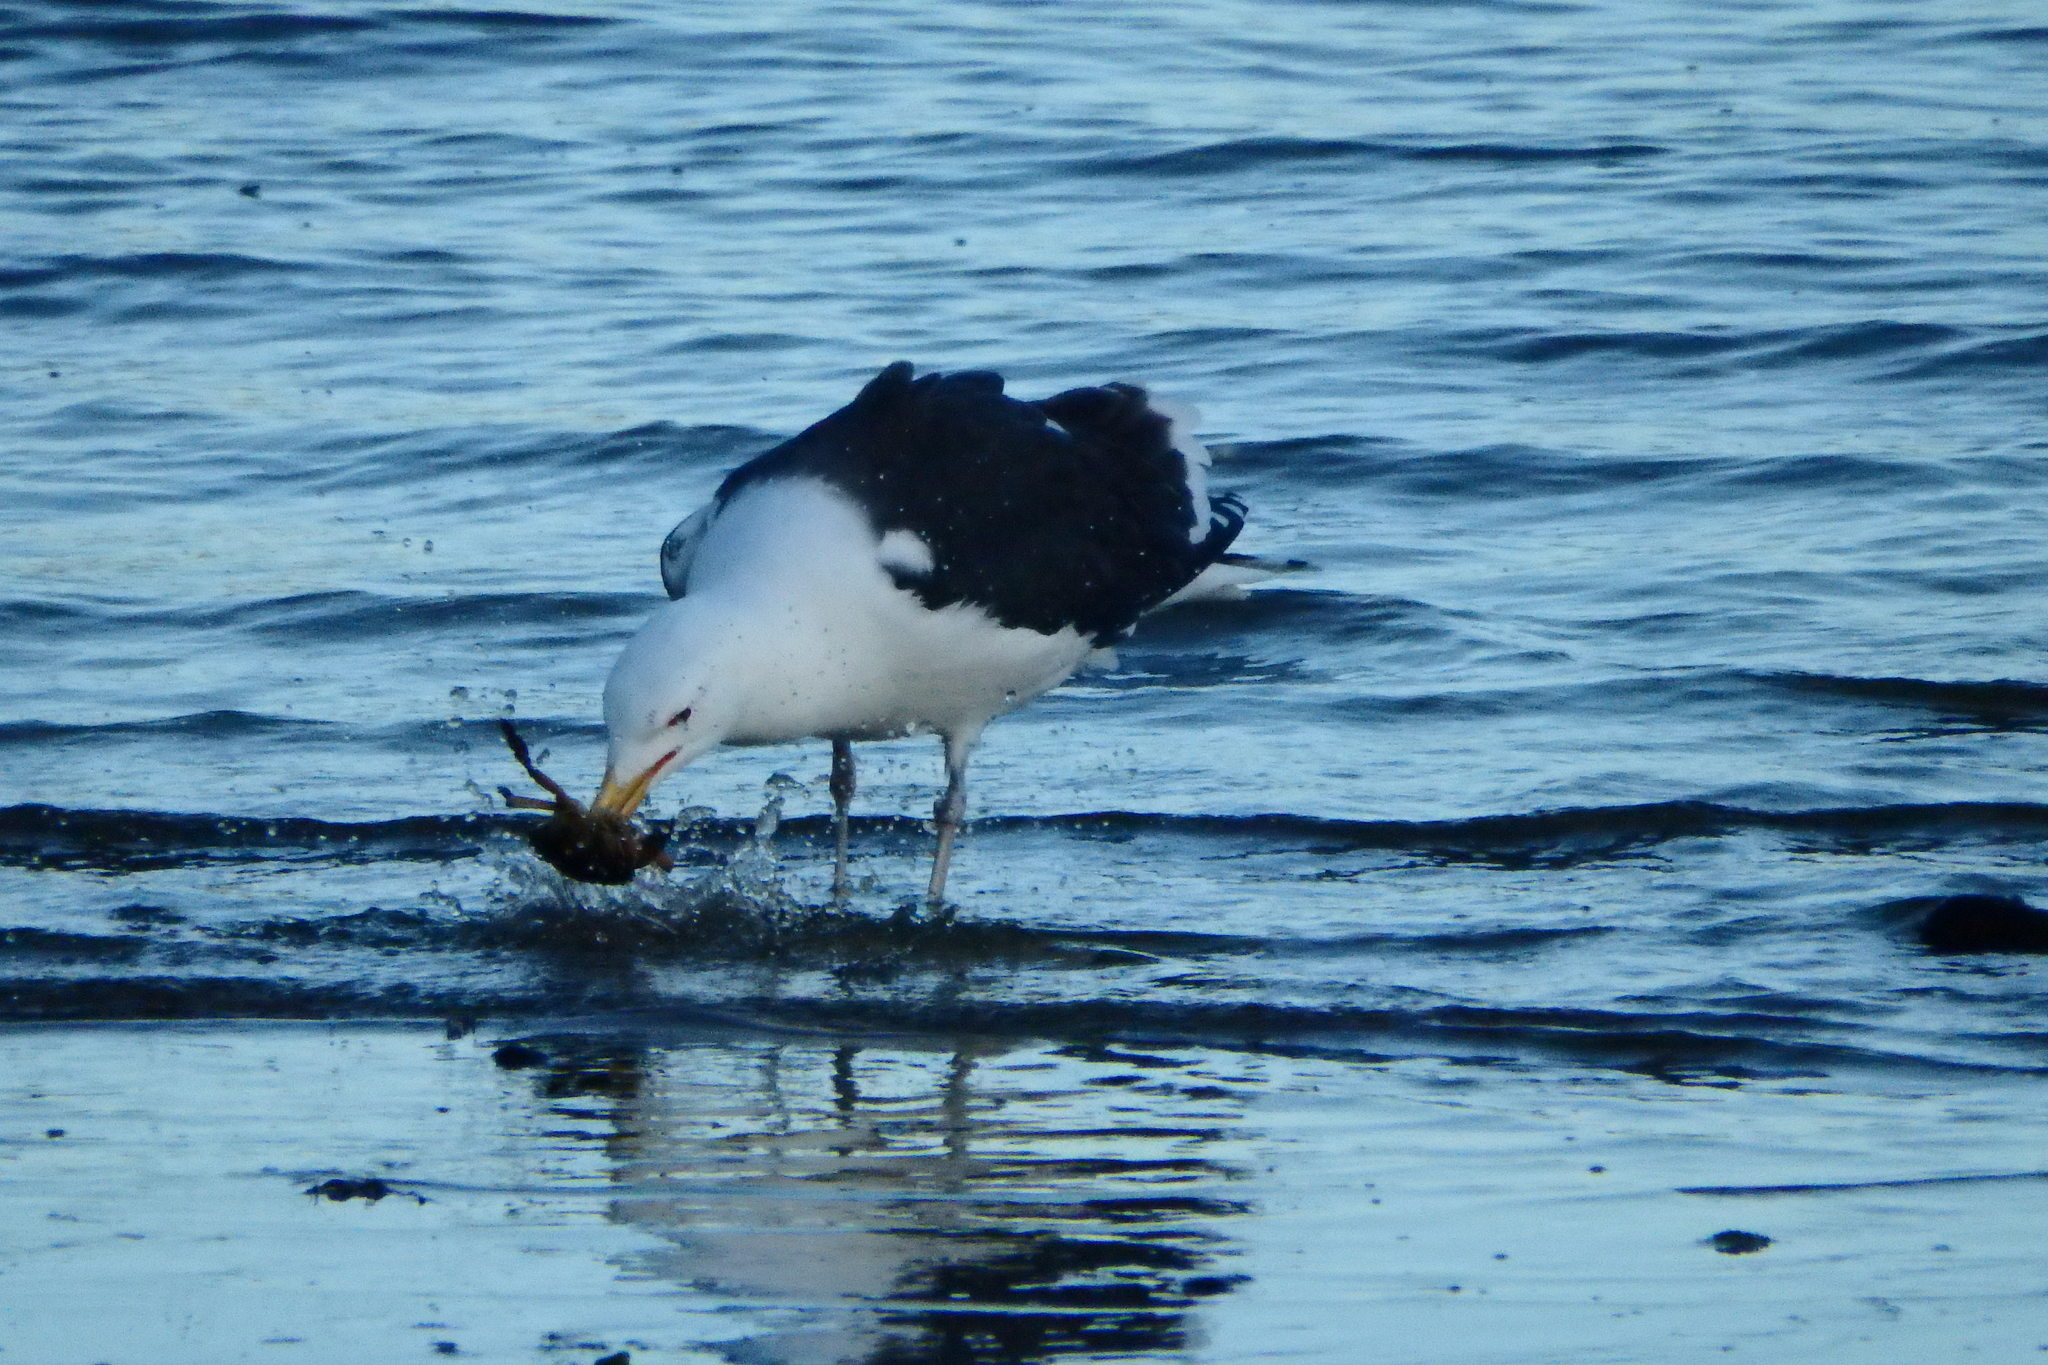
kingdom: Animalia
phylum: Chordata
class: Aves
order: Charadriiformes
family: Laridae
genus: Larus
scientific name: Larus marinus
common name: Great black-backed gull
